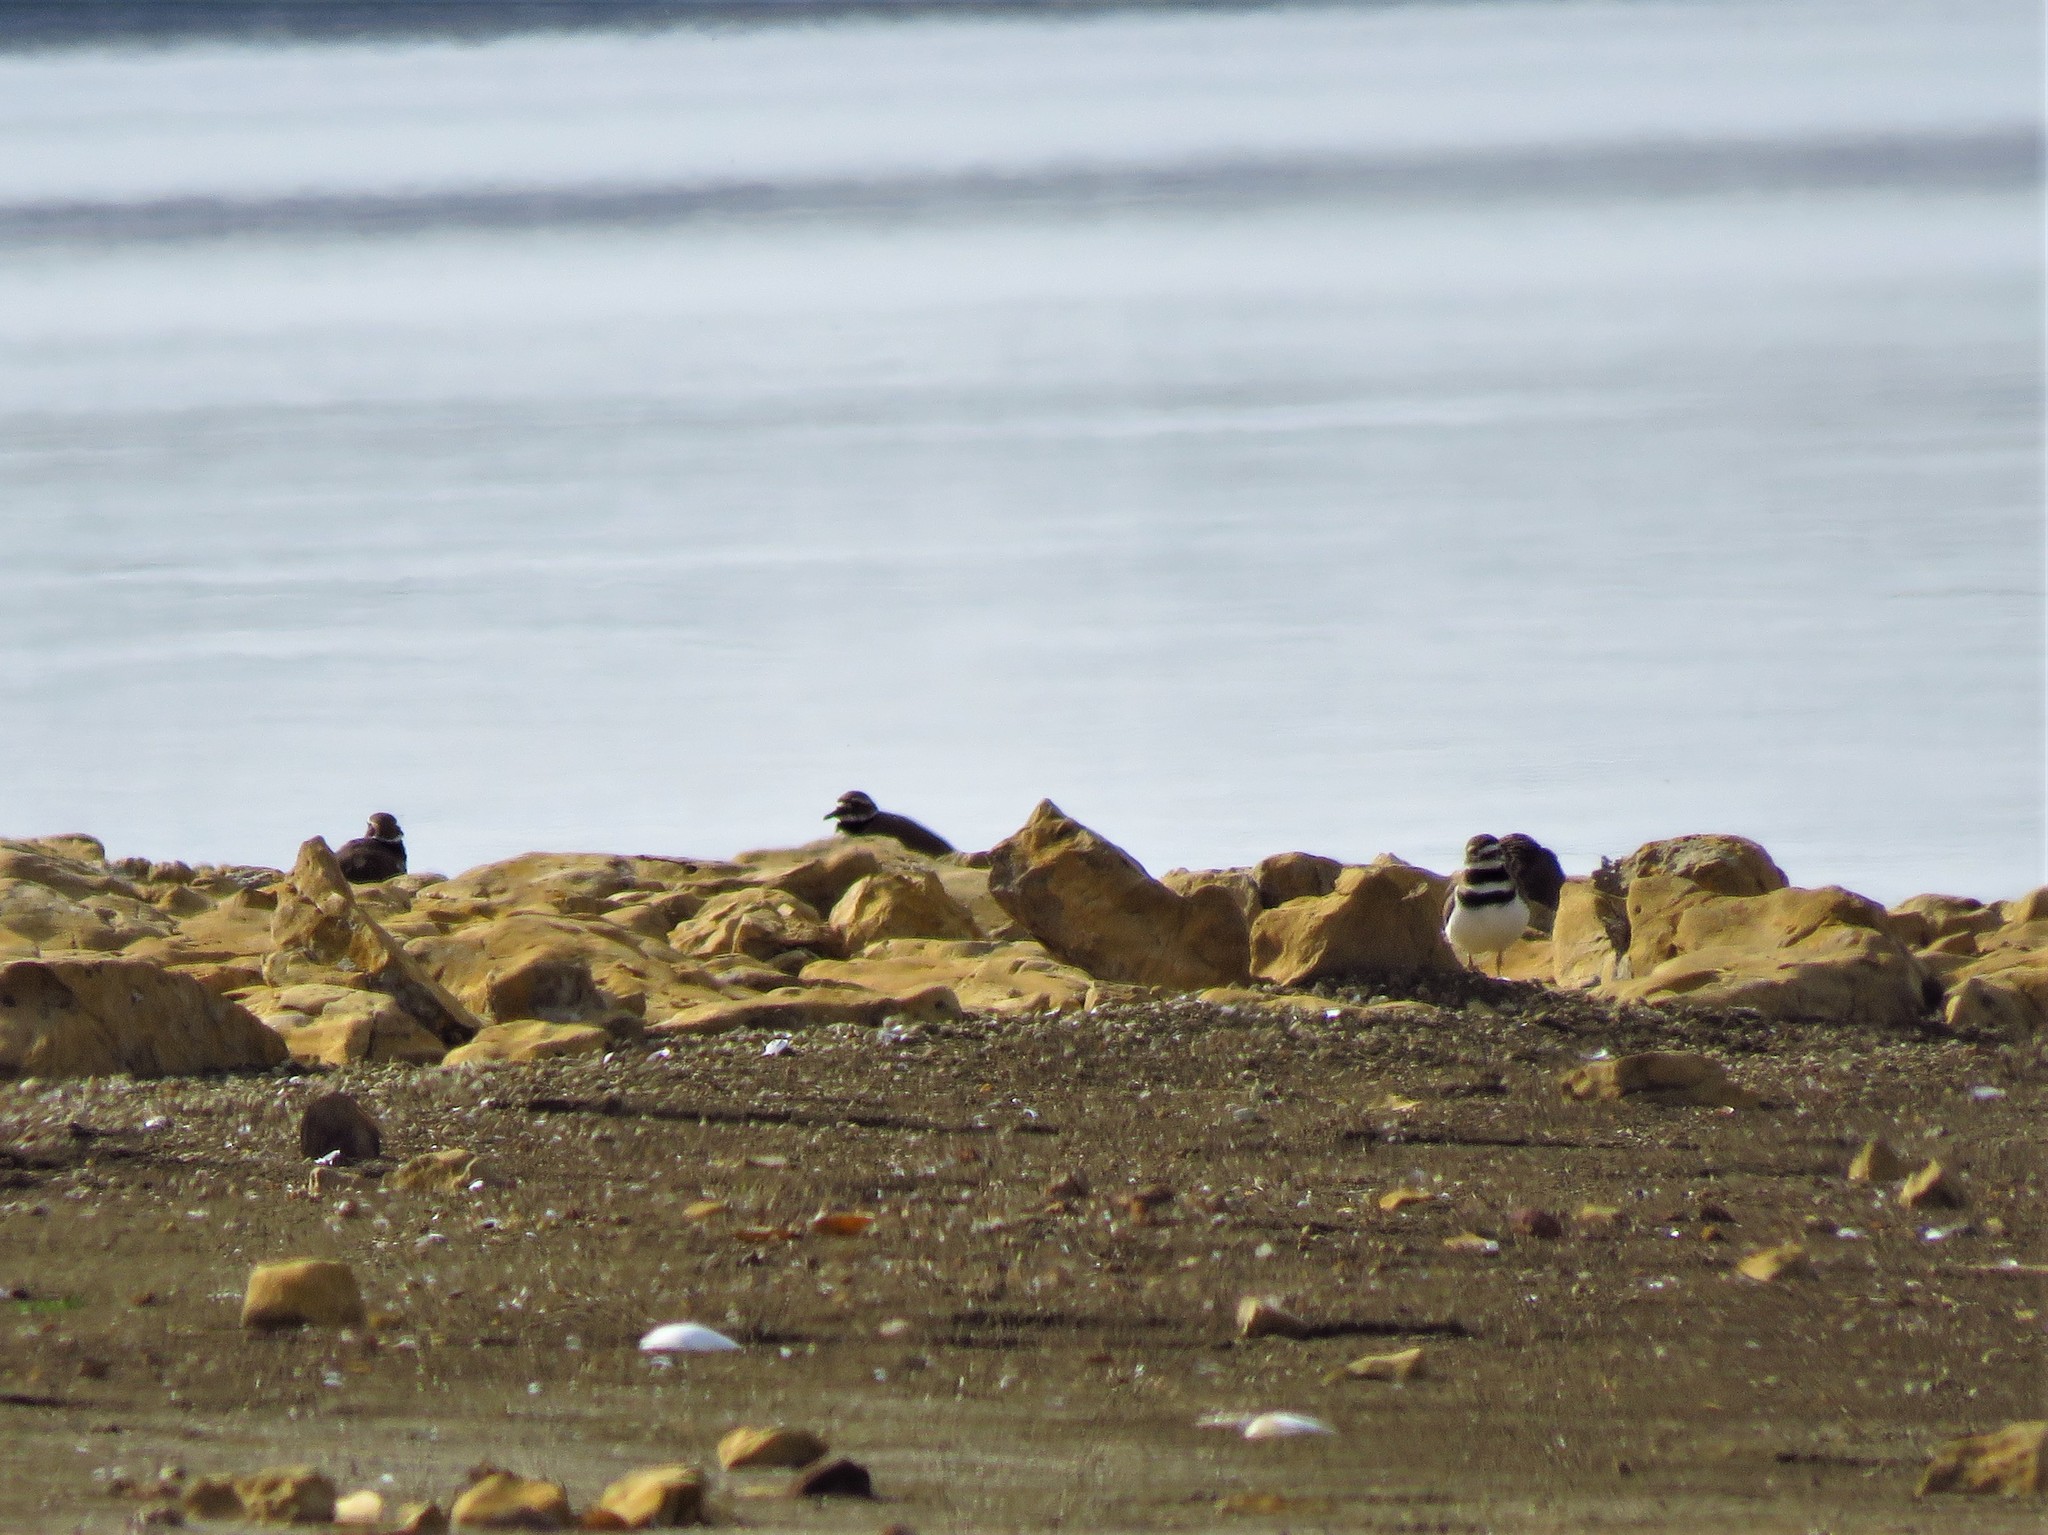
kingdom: Animalia
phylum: Chordata
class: Aves
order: Charadriiformes
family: Charadriidae
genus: Charadrius
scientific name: Charadrius vociferus
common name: Killdeer
